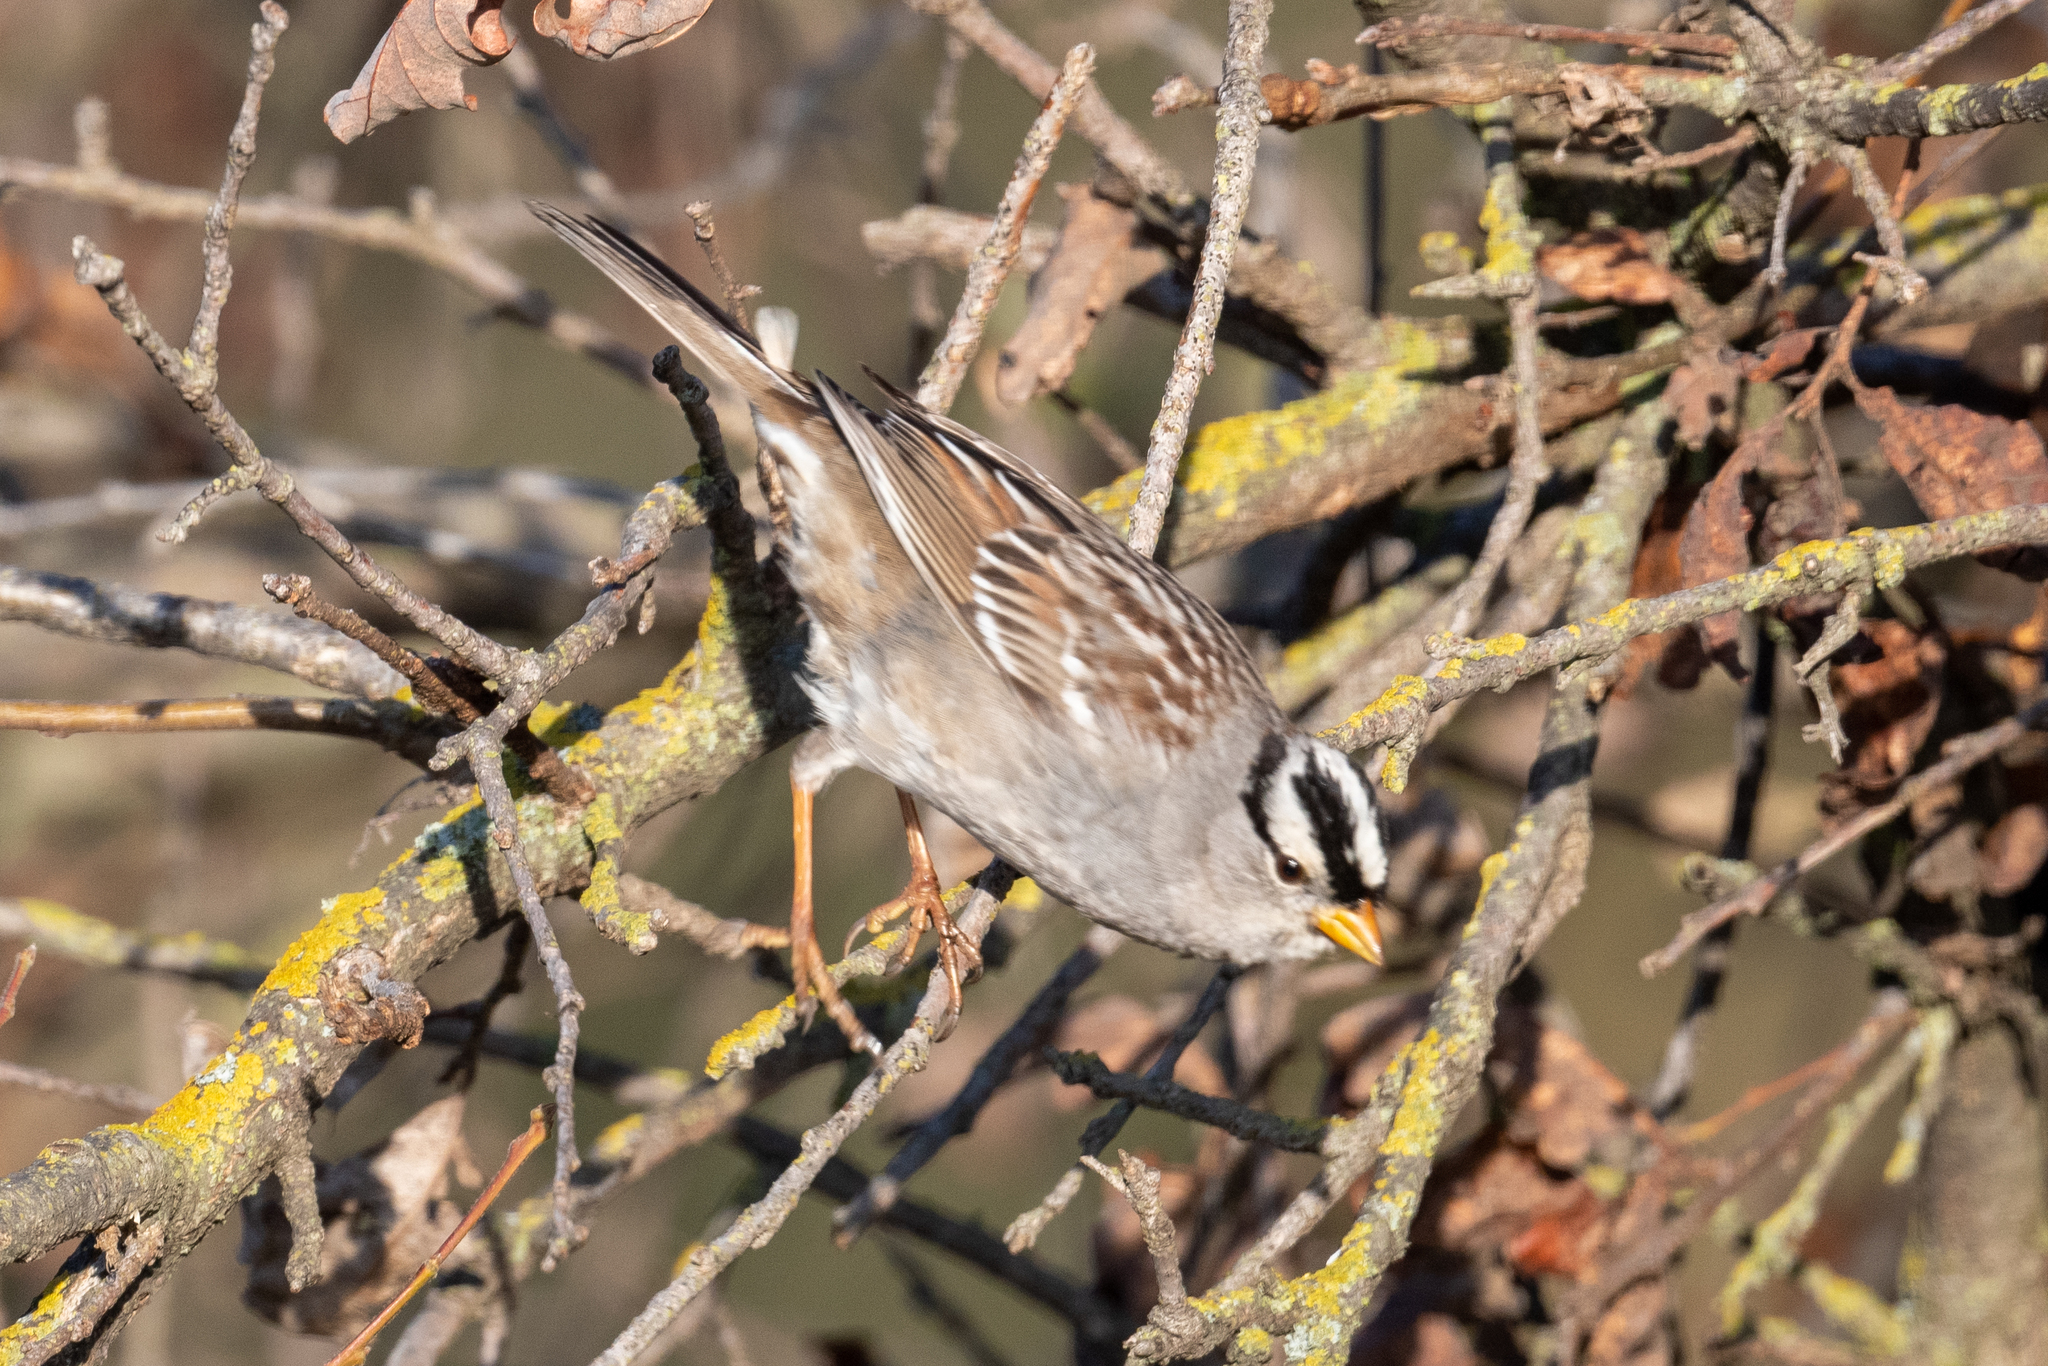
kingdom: Animalia
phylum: Chordata
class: Aves
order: Passeriformes
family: Passerellidae
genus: Zonotrichia
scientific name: Zonotrichia leucophrys
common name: White-crowned sparrow
